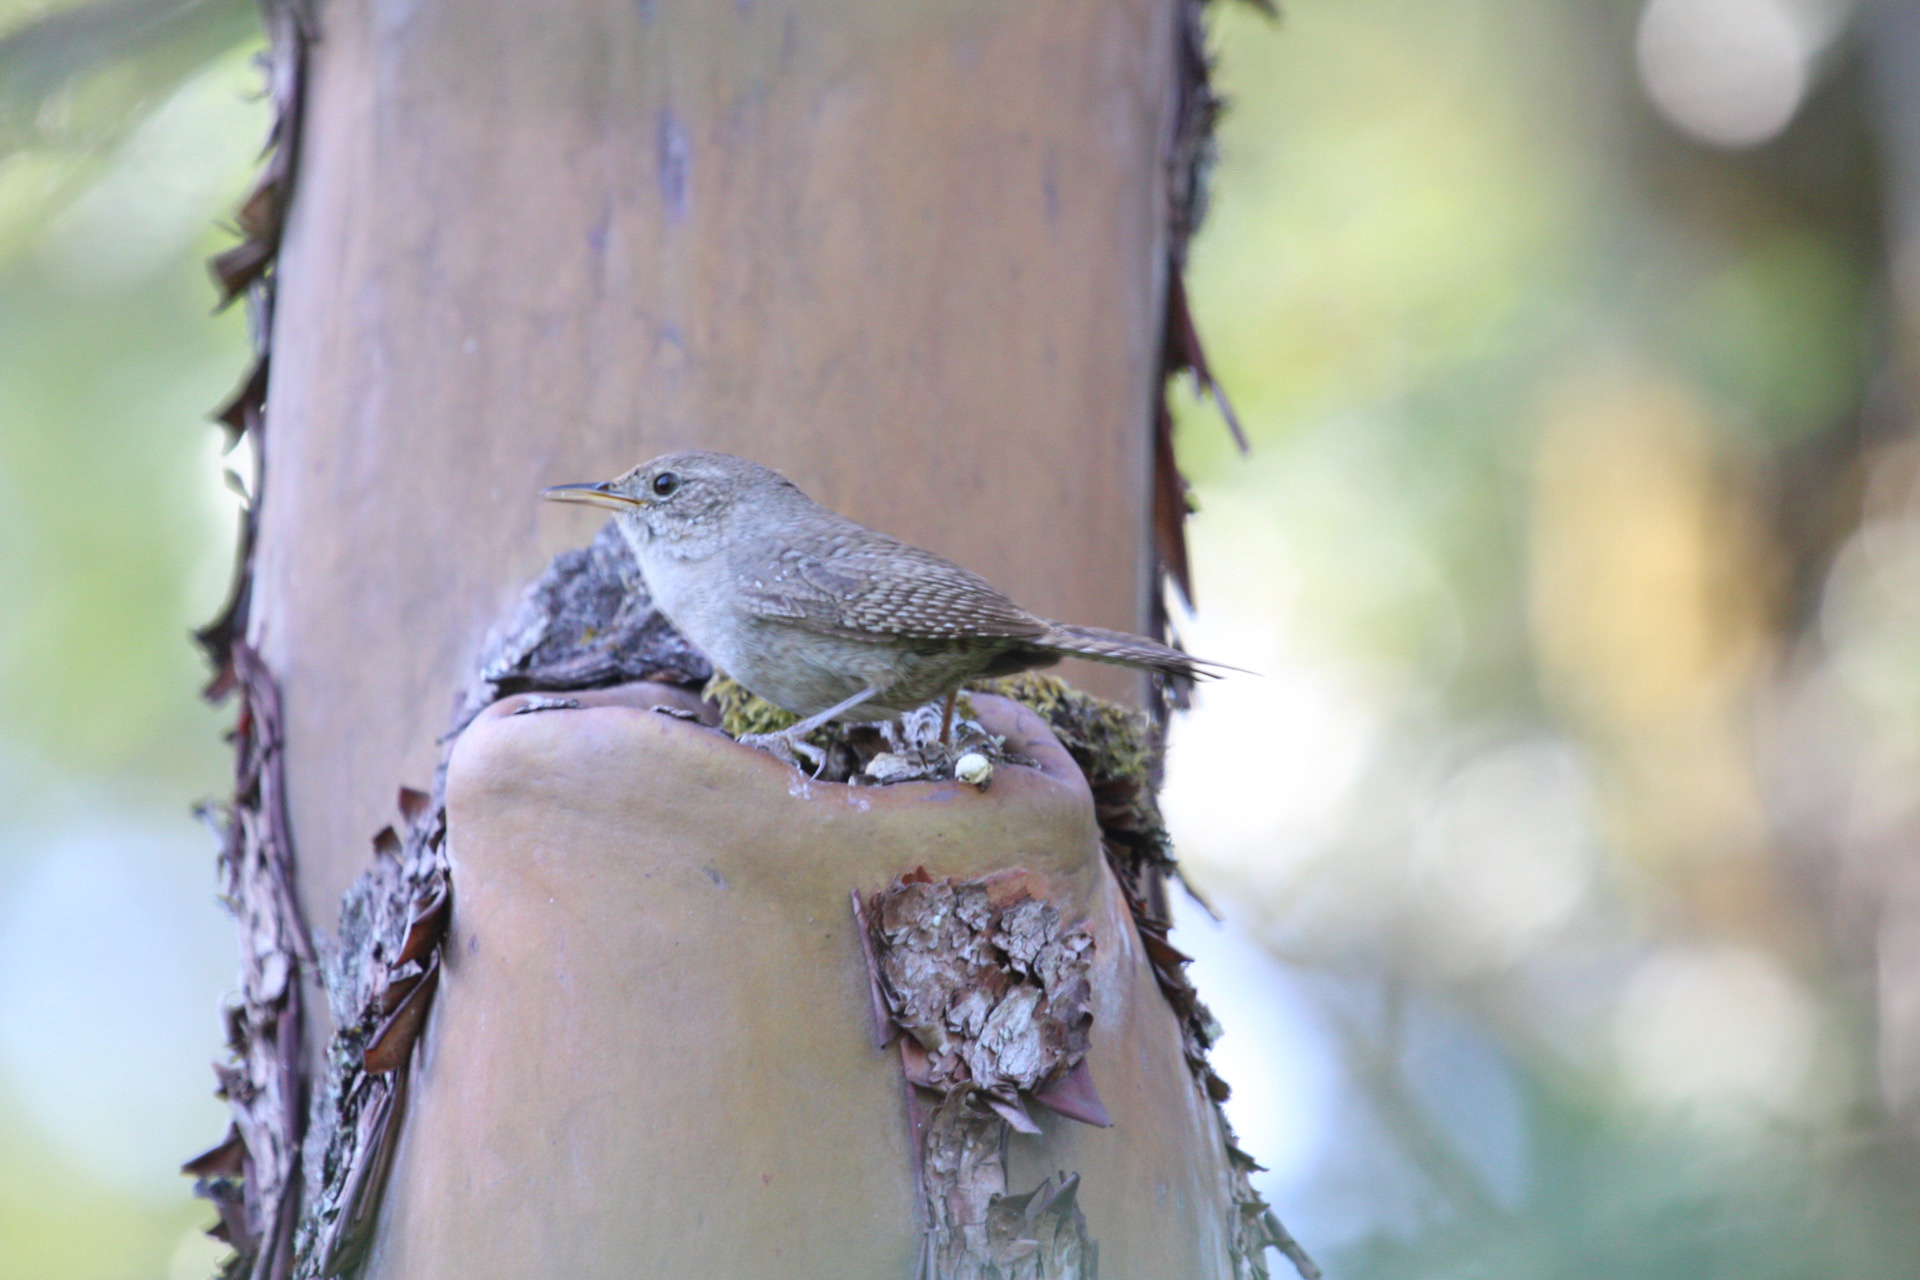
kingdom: Animalia
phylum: Chordata
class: Aves
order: Passeriformes
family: Troglodytidae
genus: Troglodytes
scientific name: Troglodytes aedon
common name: House wren
